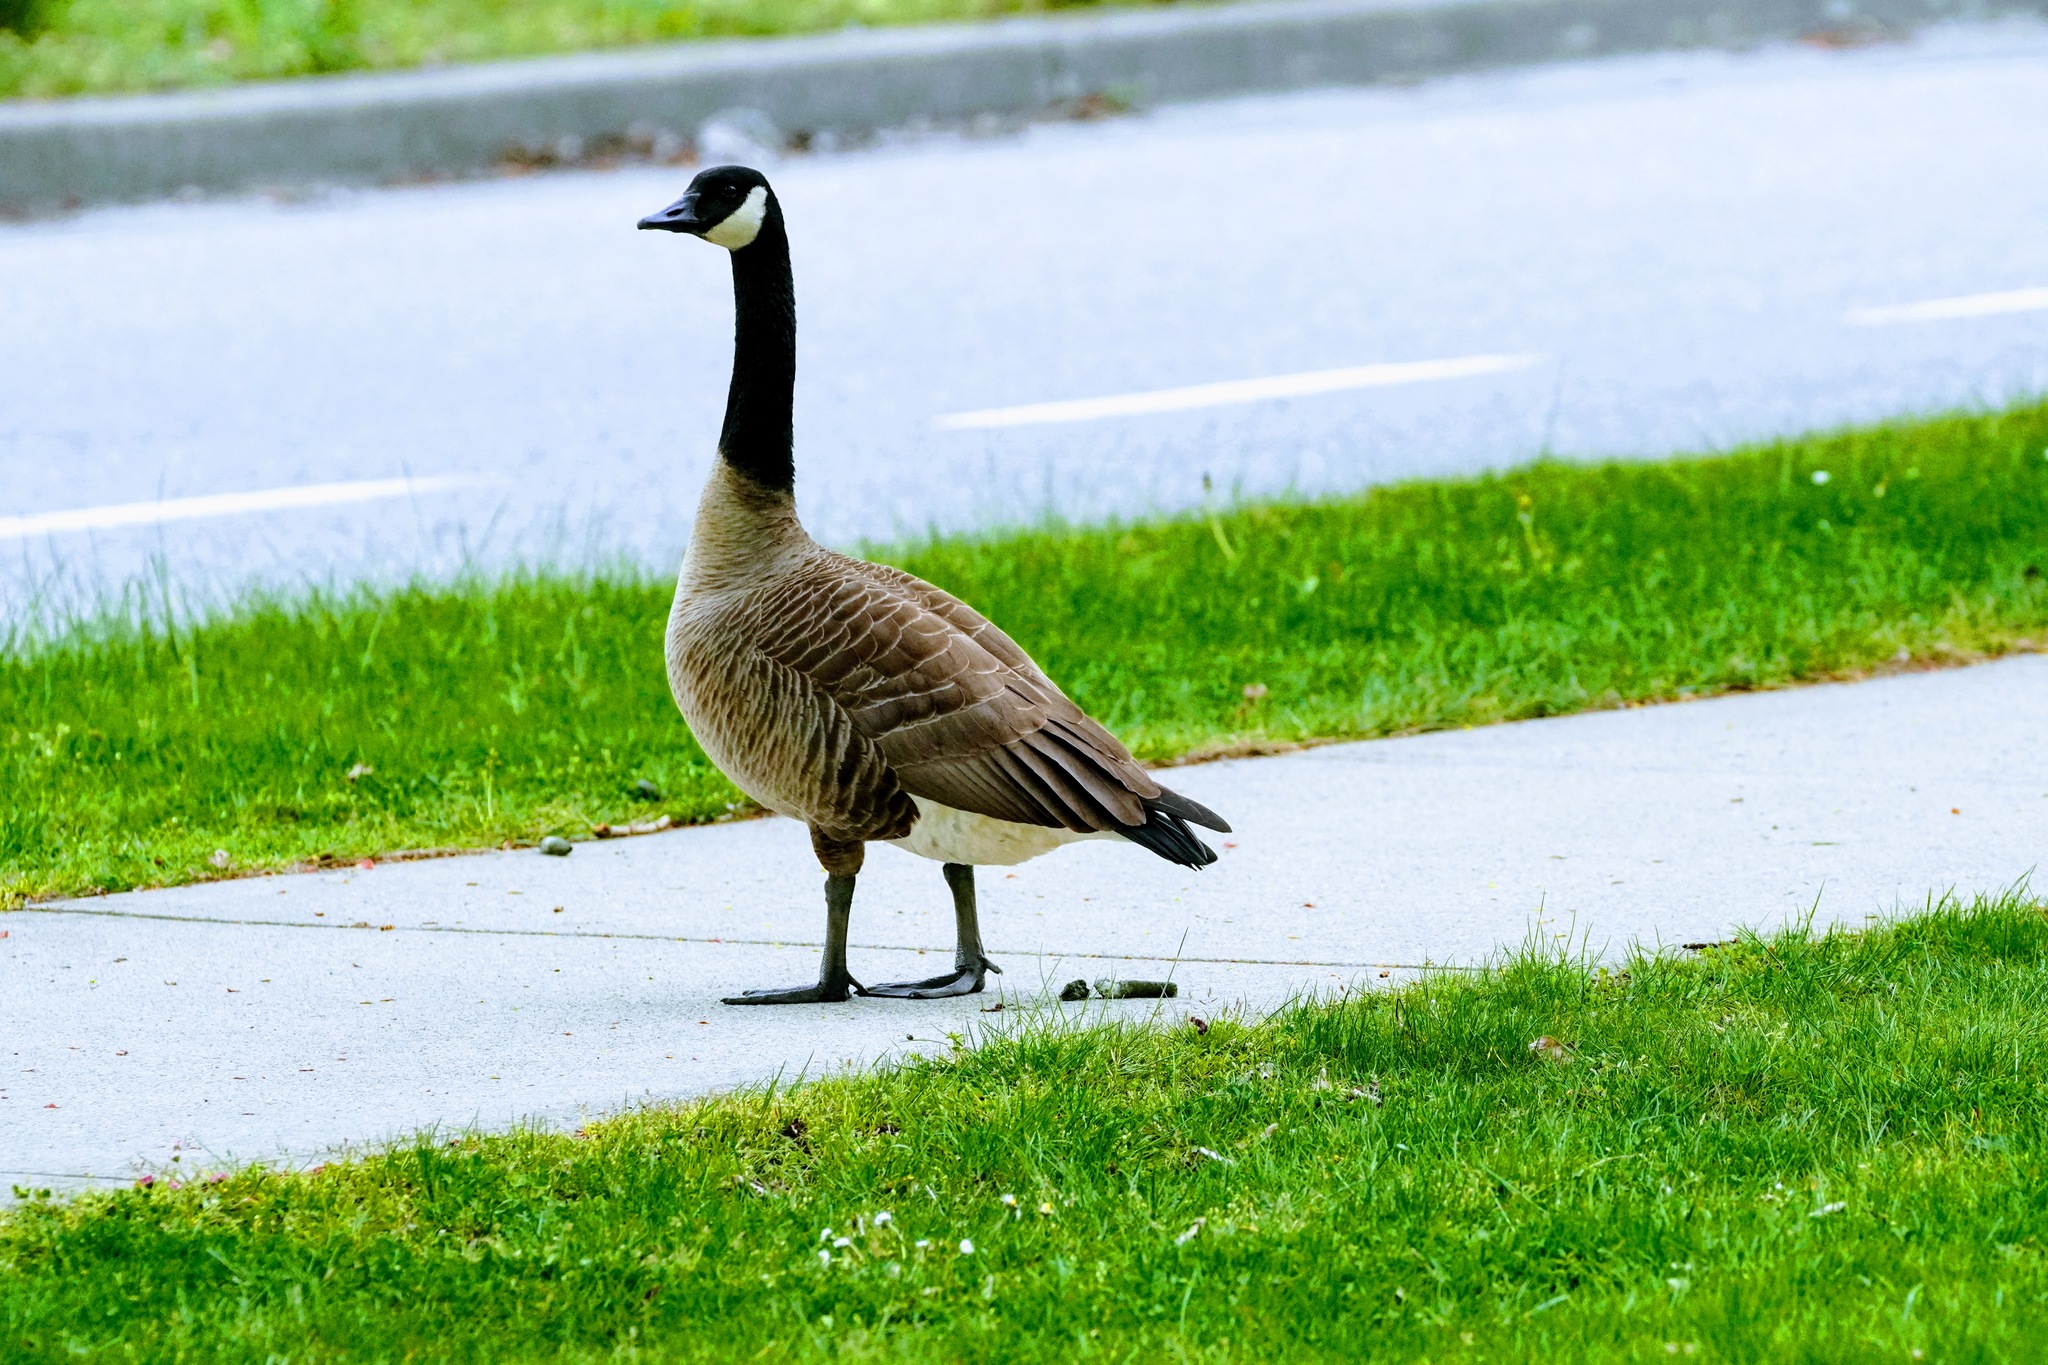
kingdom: Animalia
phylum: Chordata
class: Aves
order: Anseriformes
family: Anatidae
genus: Branta
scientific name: Branta canadensis
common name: Canada goose
